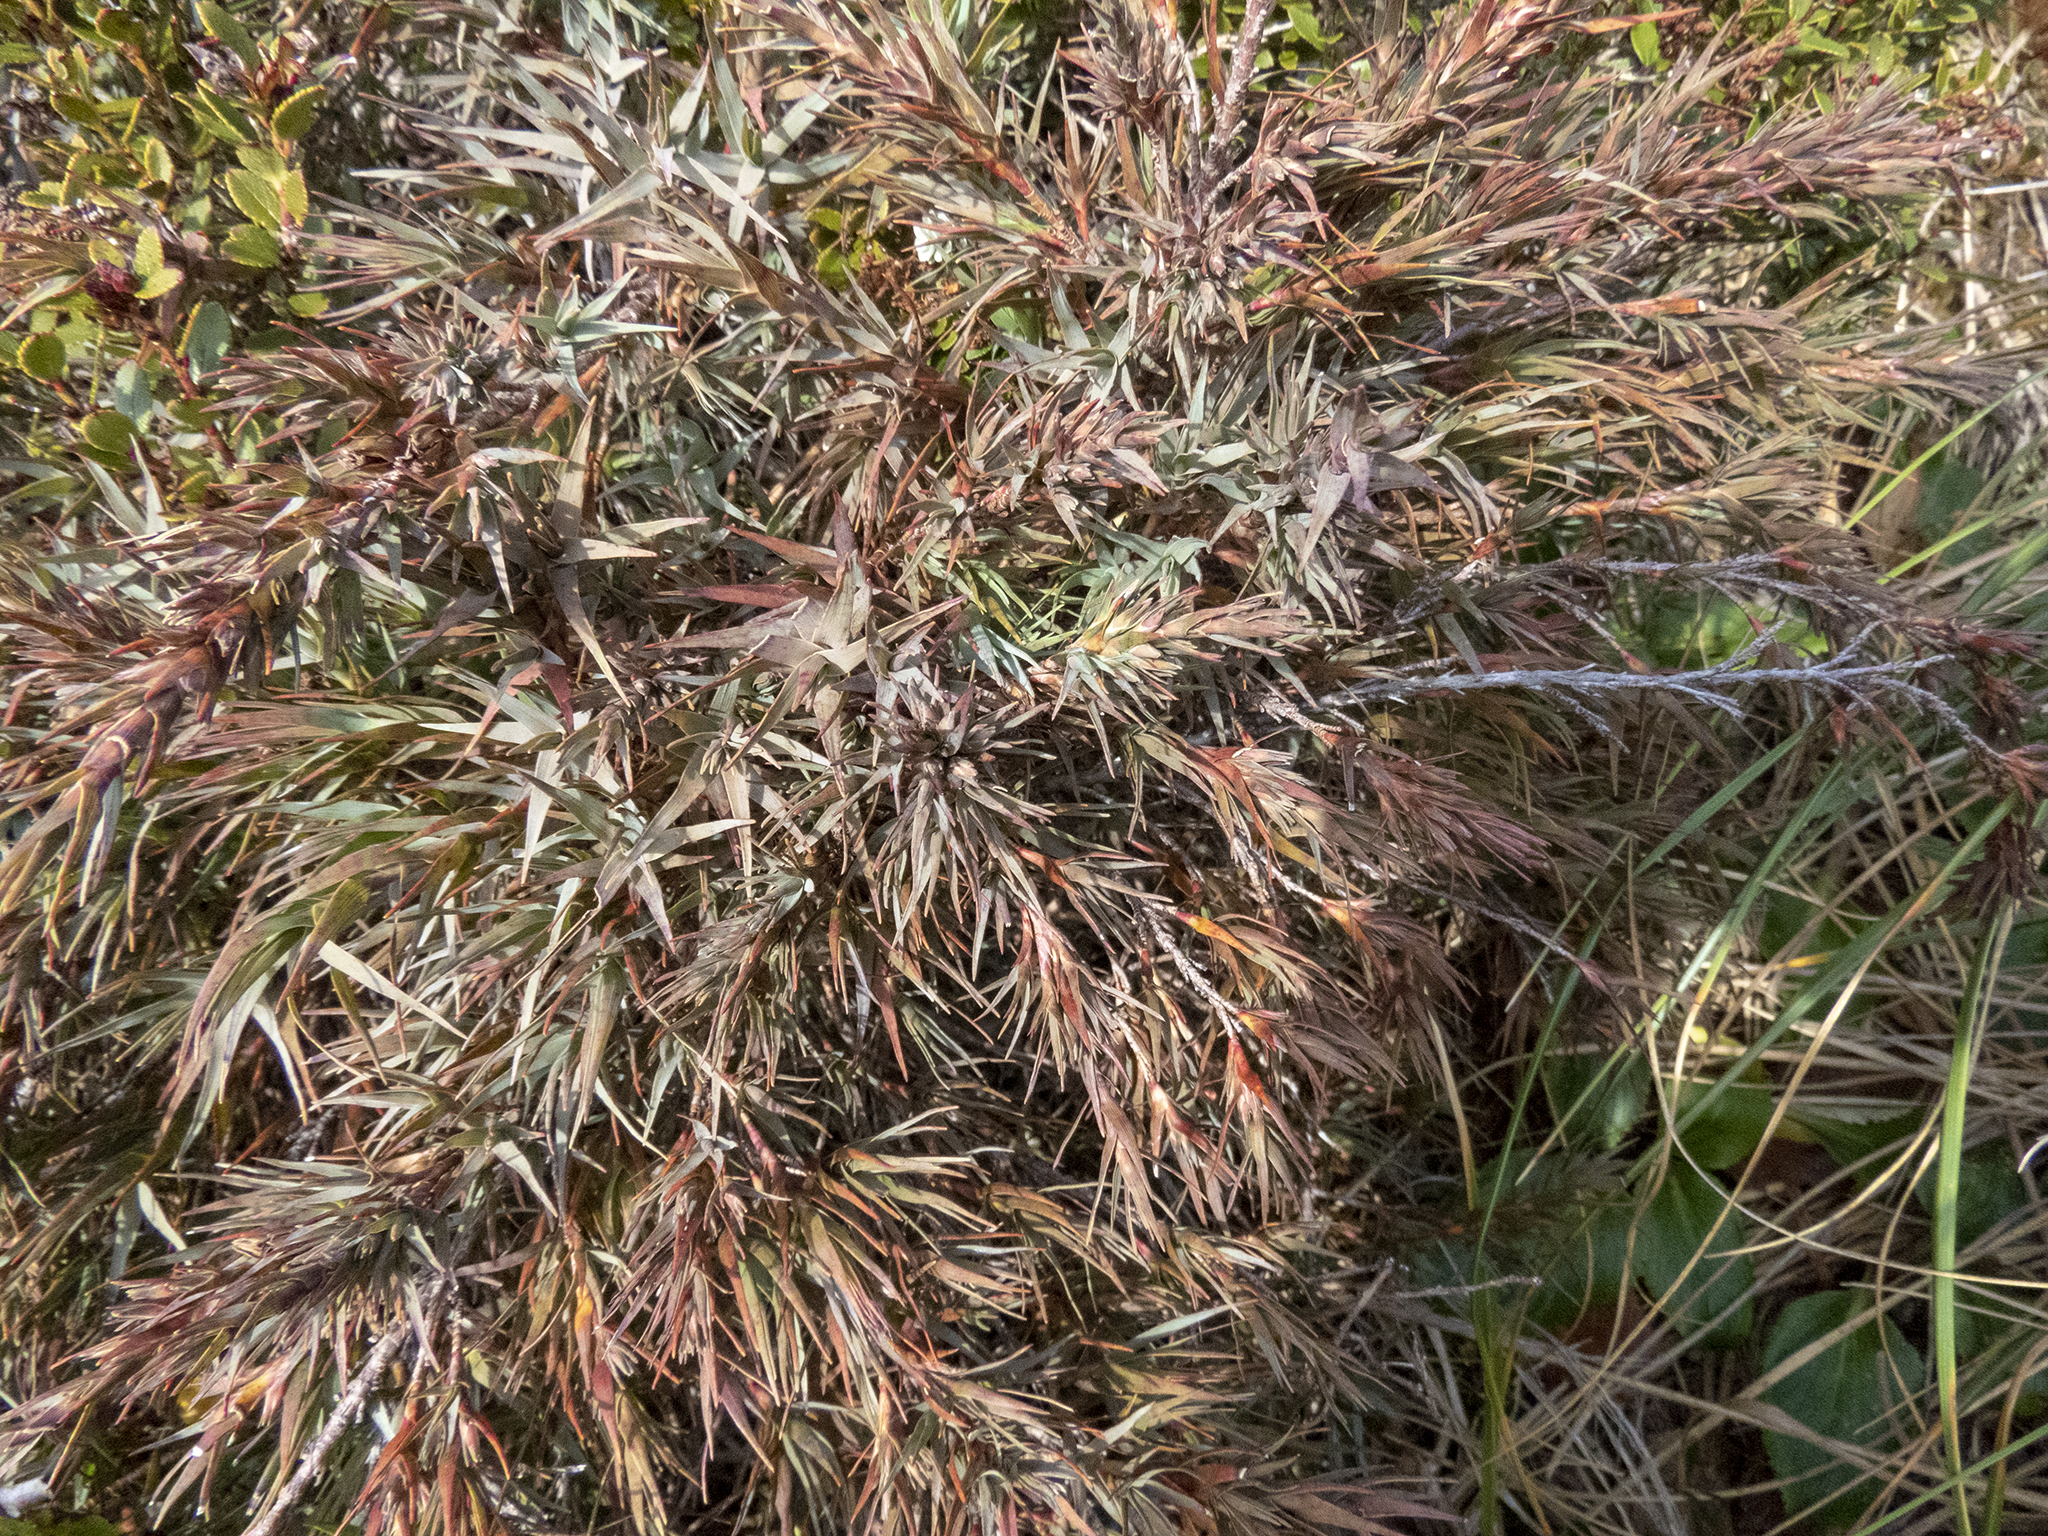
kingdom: Plantae
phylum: Tracheophyta
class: Magnoliopsida
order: Ericales
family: Ericaceae
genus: Dracophyllum
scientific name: Dracophyllum kirkii
